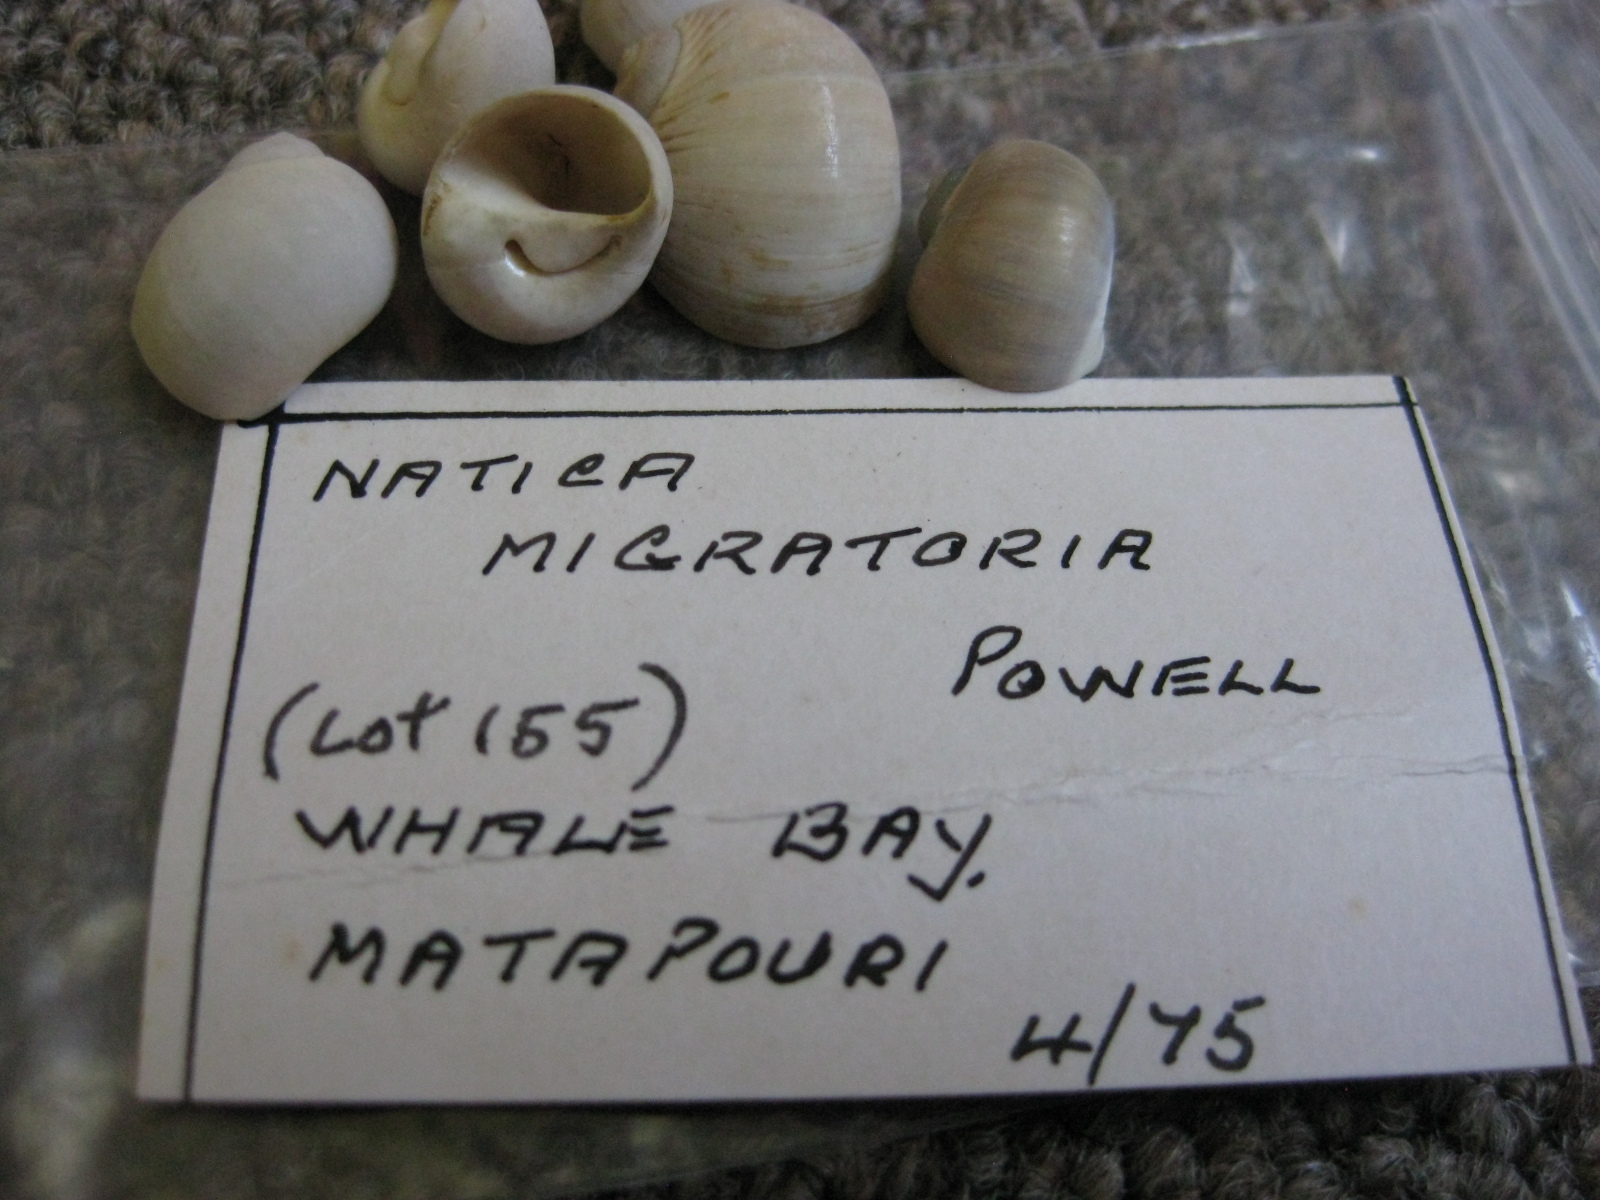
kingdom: Animalia
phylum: Mollusca
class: Gastropoda
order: Littorinimorpha
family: Naticidae
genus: Notocochlis
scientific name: Notocochlis gualteriana
